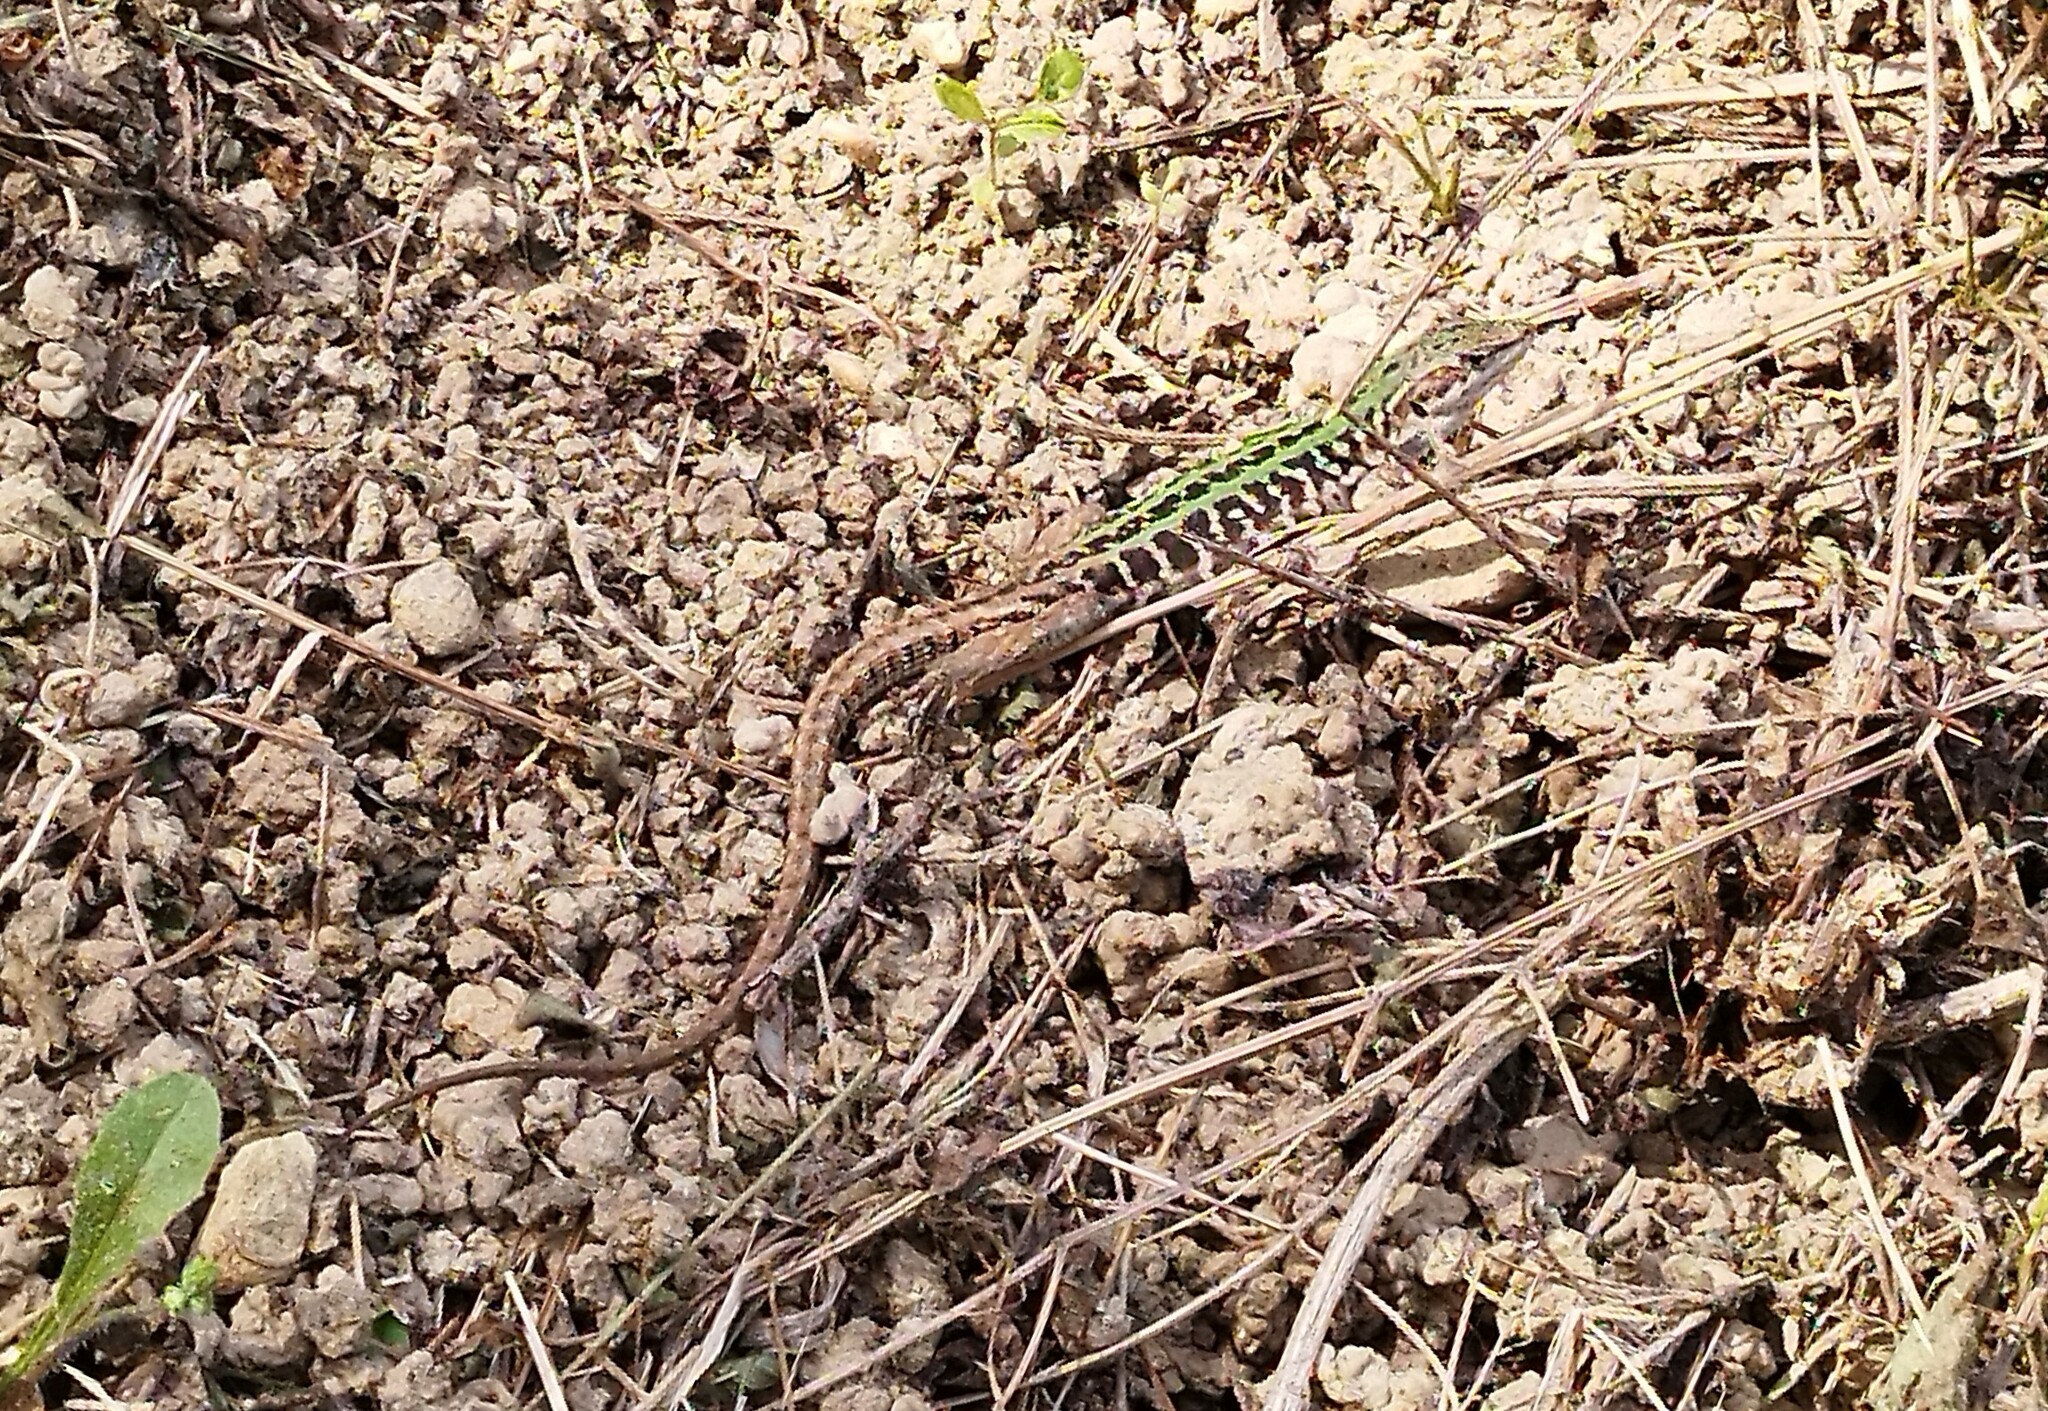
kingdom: Animalia
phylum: Chordata
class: Squamata
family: Lacertidae
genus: Podarcis
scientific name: Podarcis siculus
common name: Italian wall lizard
